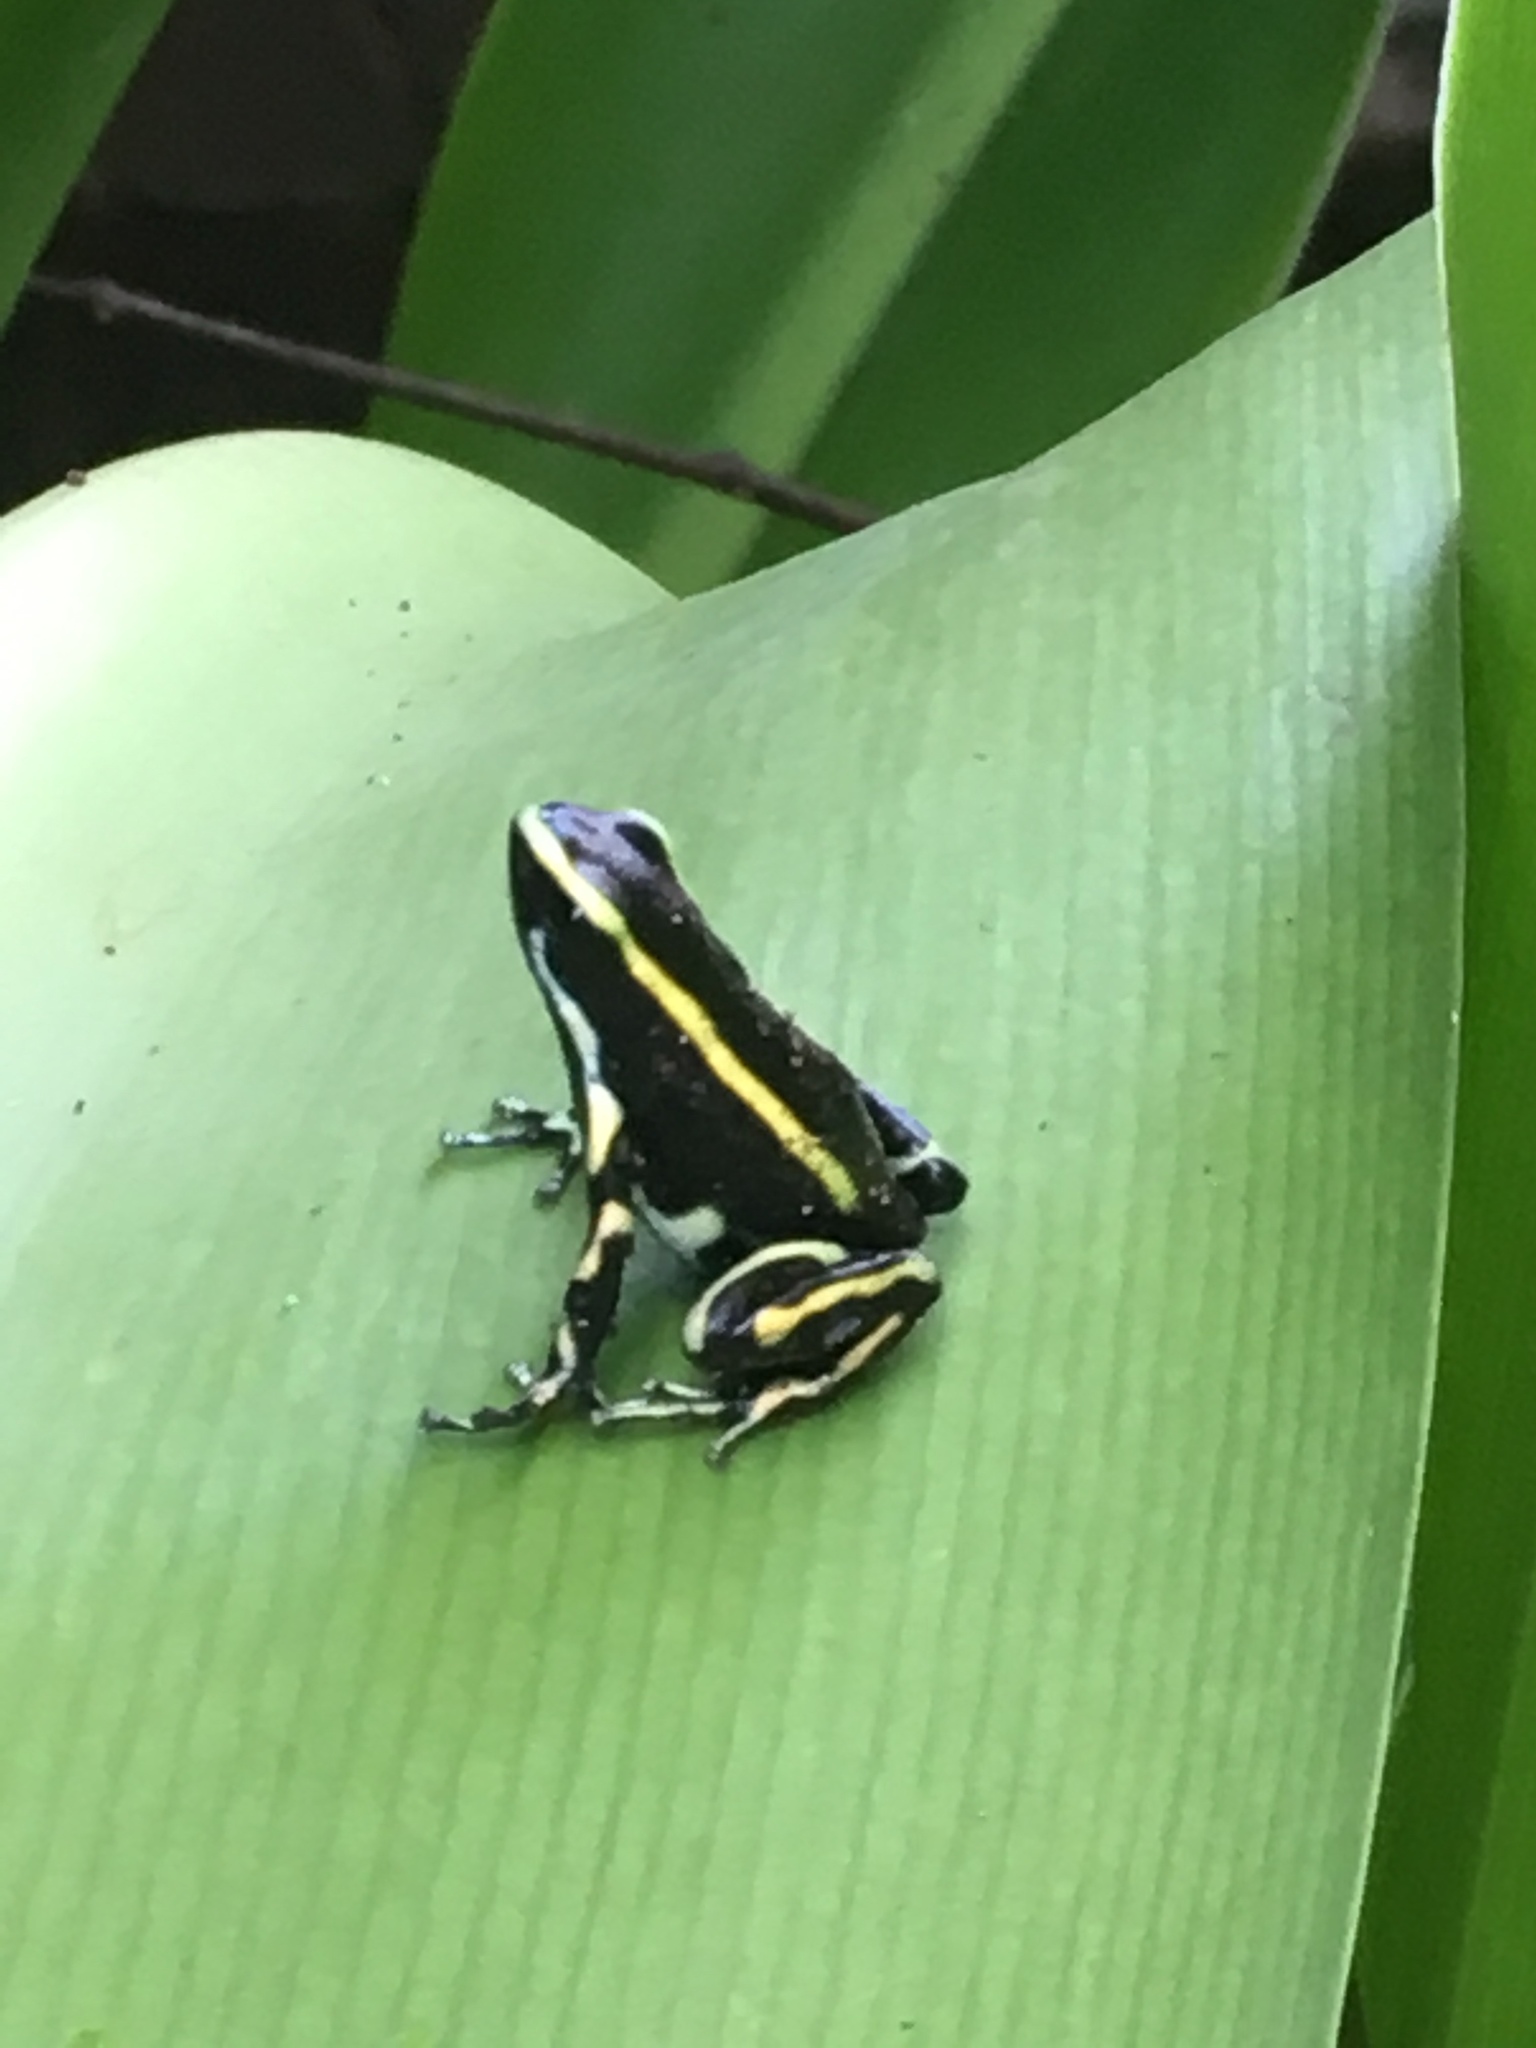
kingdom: Animalia
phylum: Chordata
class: Amphibia
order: Anura
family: Dendrobatidae
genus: Dendrobates
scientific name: Dendrobates truncatus
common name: Yellow-striped poison frog
